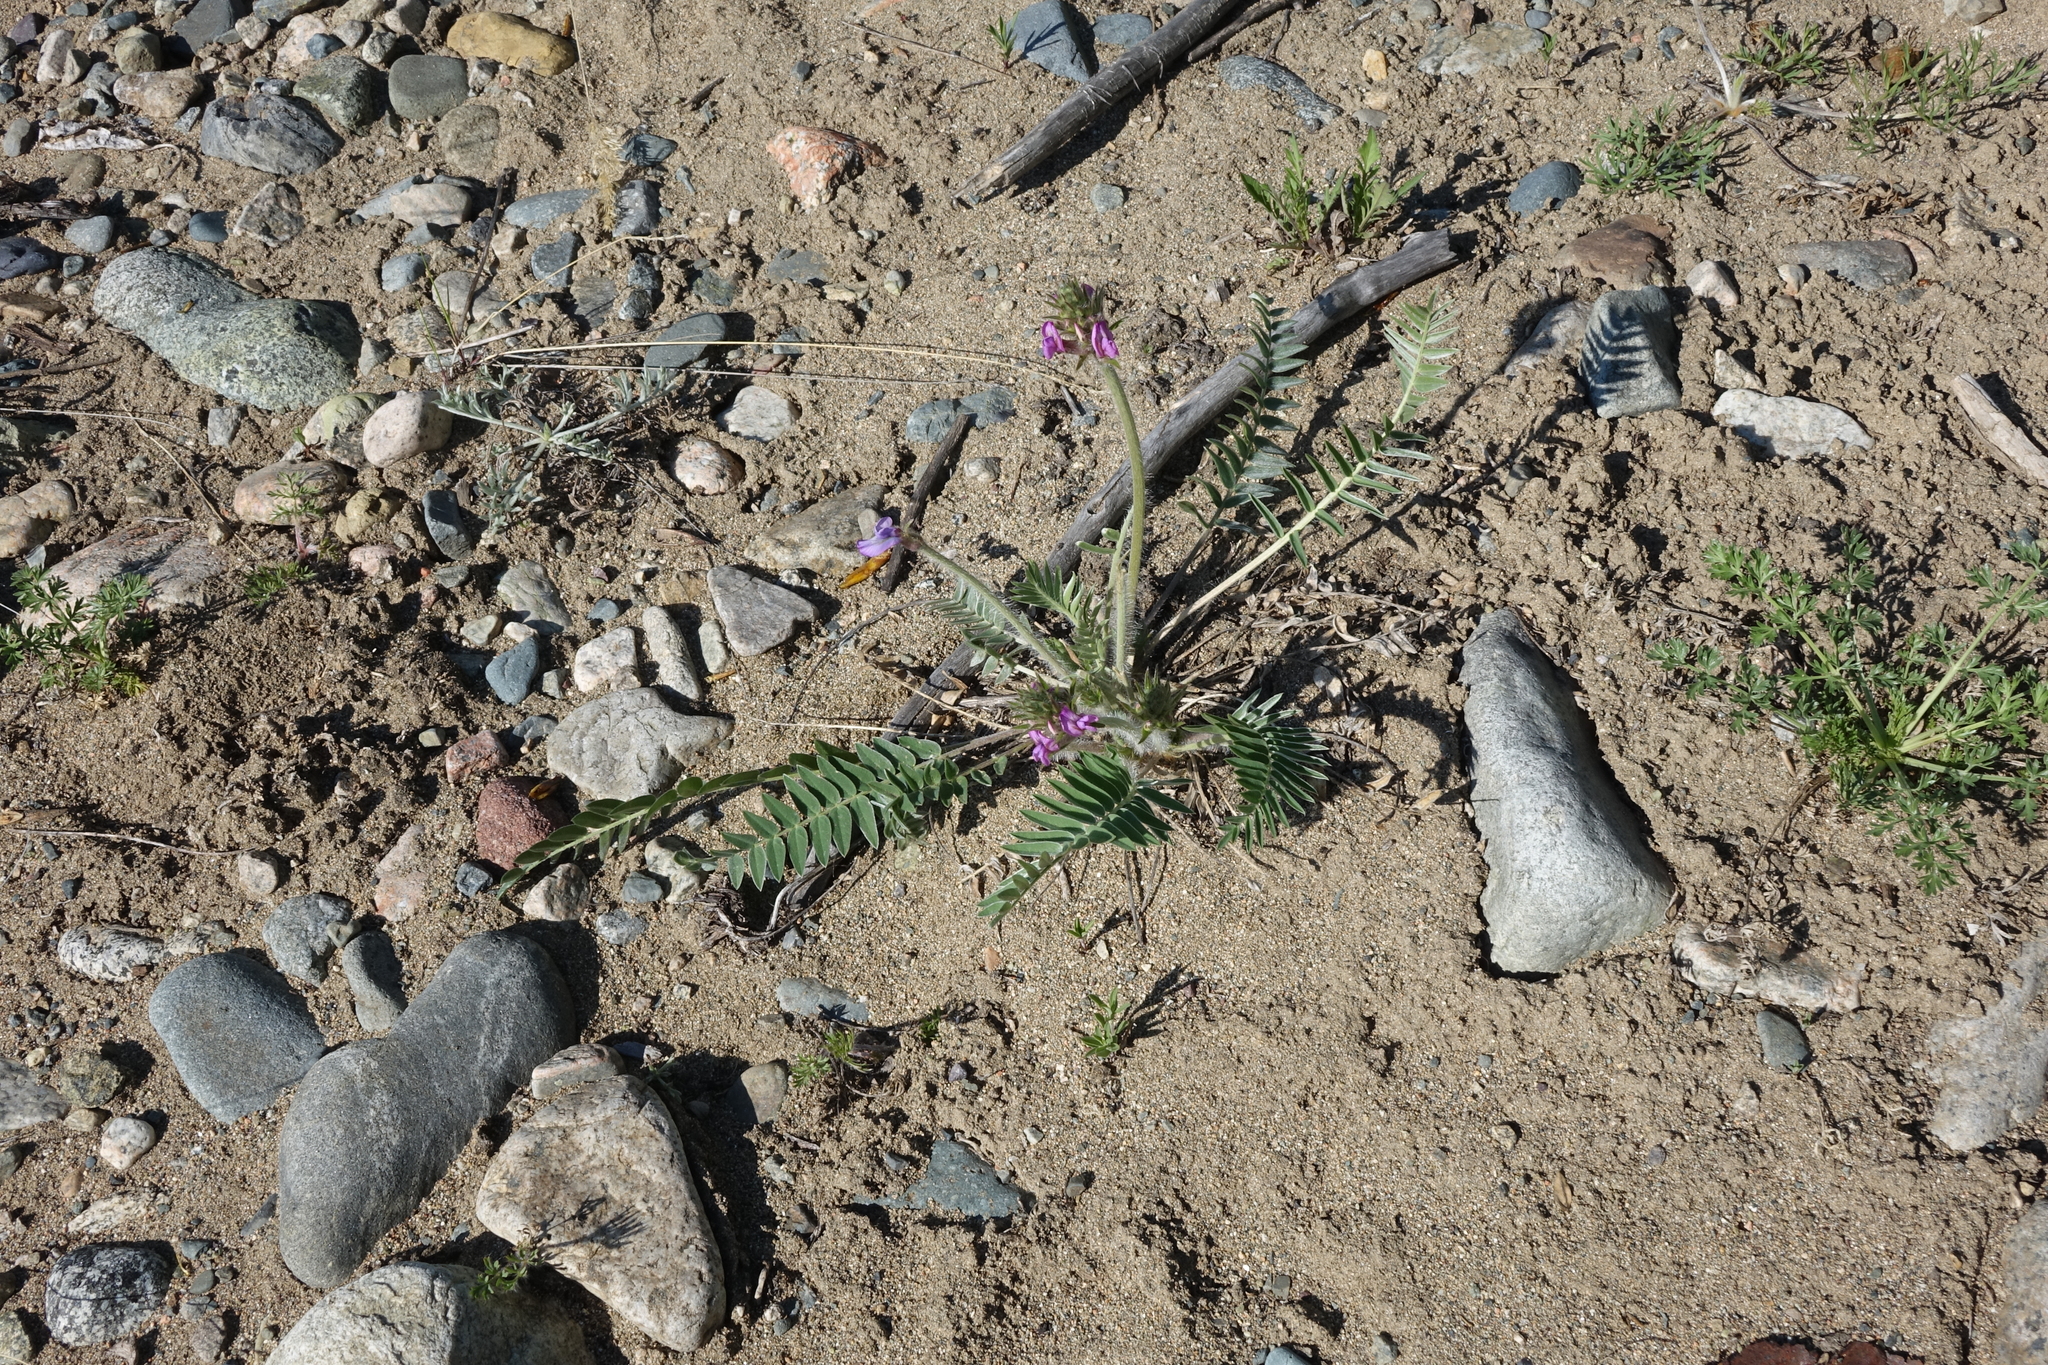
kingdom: Plantae
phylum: Tracheophyta
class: Magnoliopsida
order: Fabales
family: Fabaceae
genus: Oxytropis
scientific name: Oxytropis strobilacea
